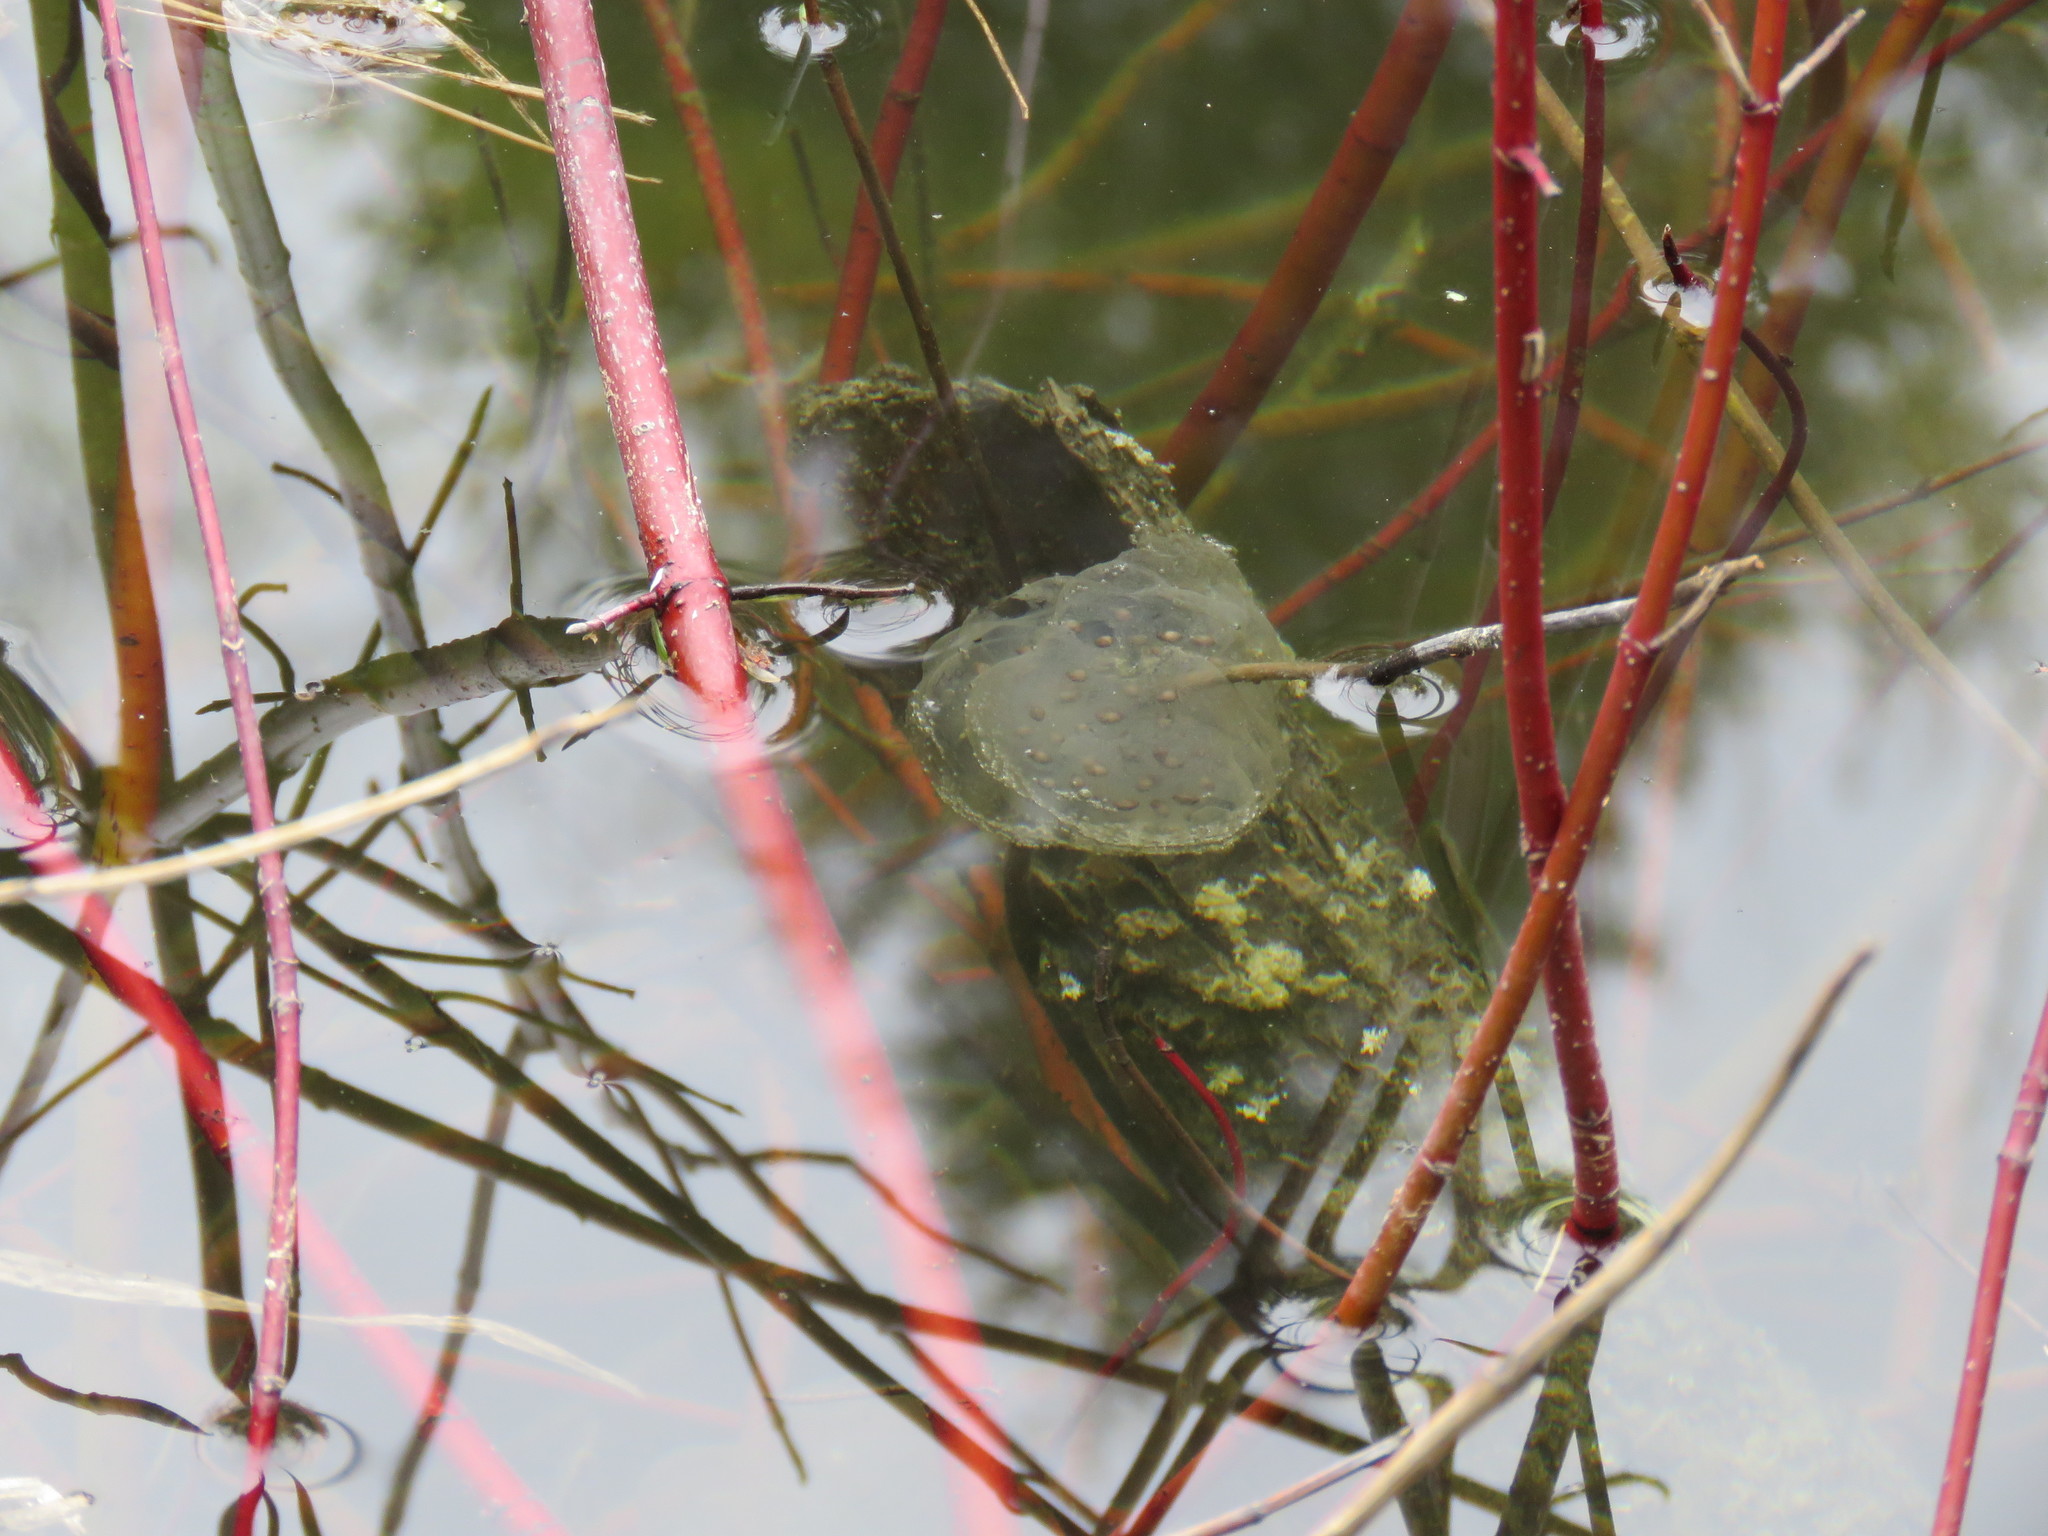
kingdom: Animalia
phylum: Chordata
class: Amphibia
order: Caudata
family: Ambystomatidae
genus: Ambystoma
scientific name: Ambystoma maculatum
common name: Spotted salamander
